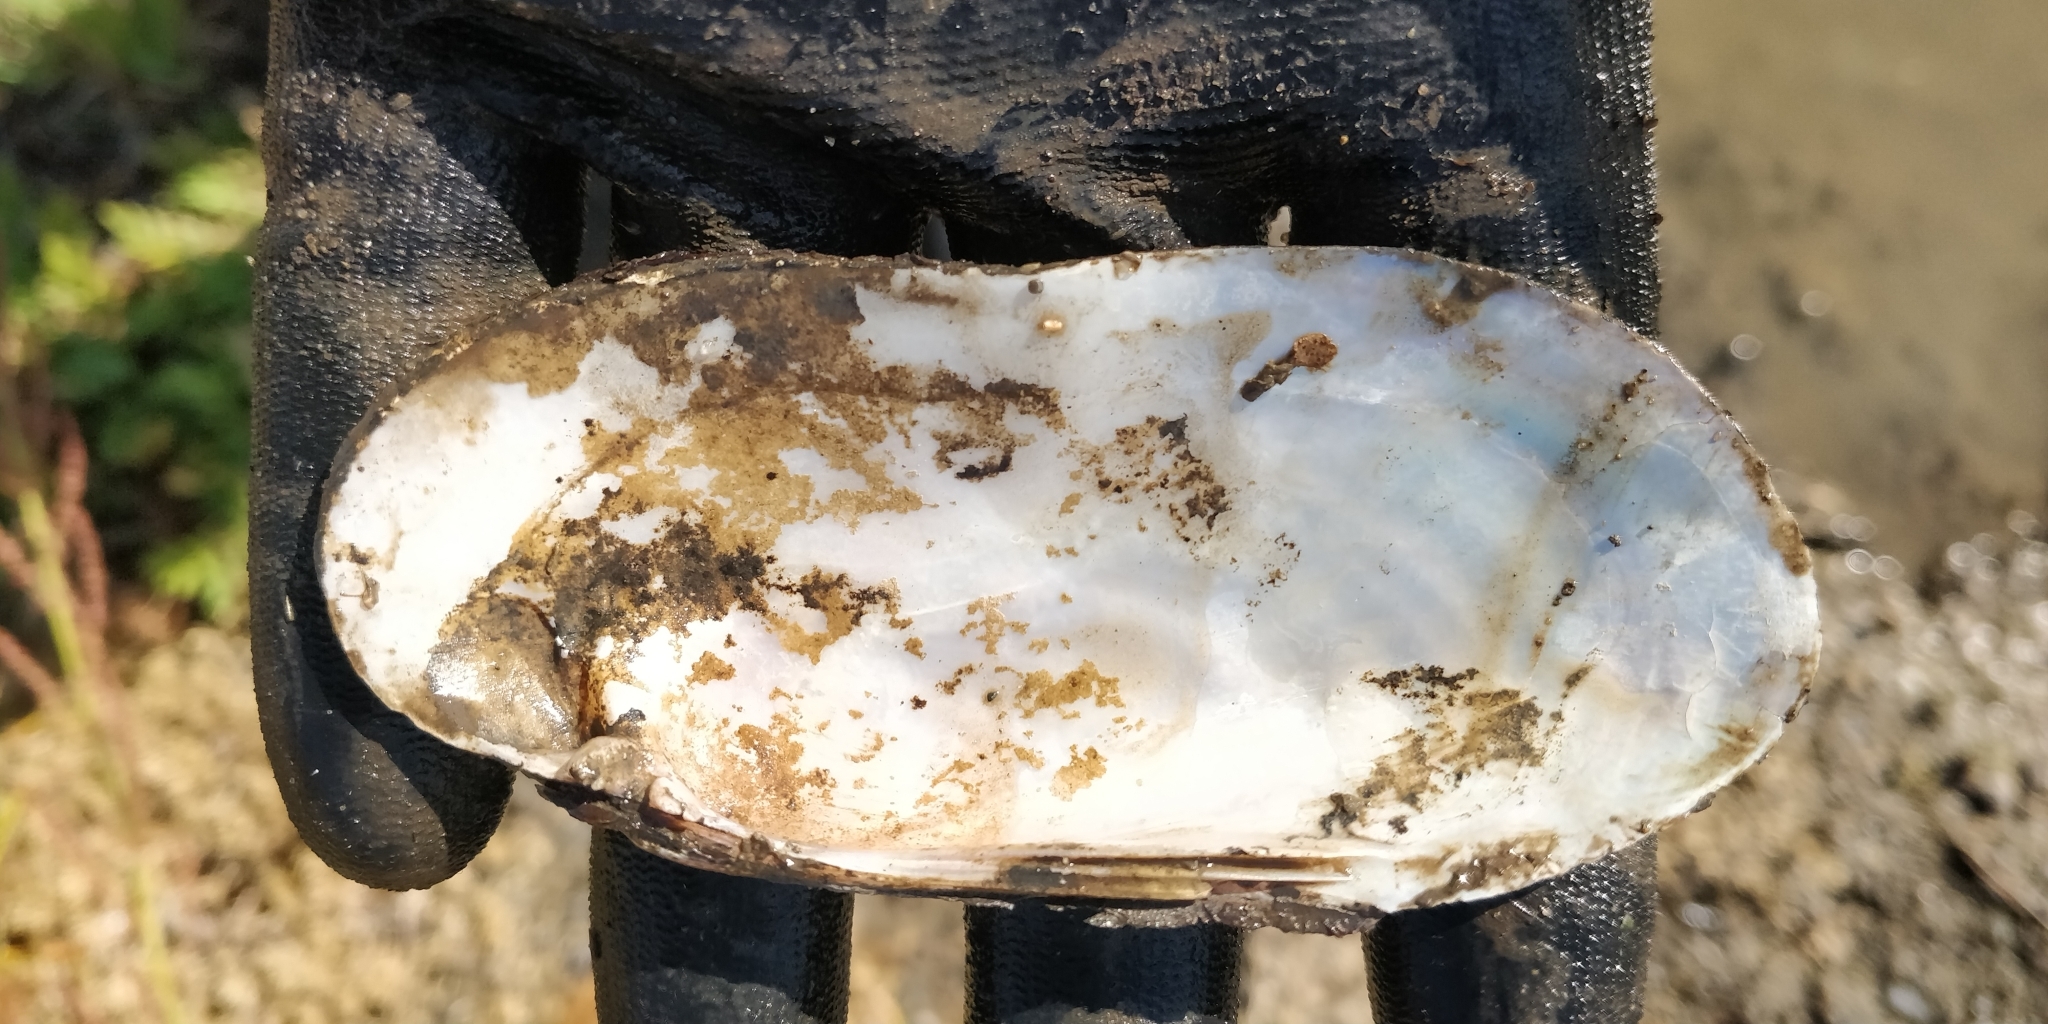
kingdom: Animalia
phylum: Mollusca
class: Bivalvia
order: Unionida
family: Unionidae
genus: Ligumia
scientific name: Ligumia recta
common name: Black sandshell
